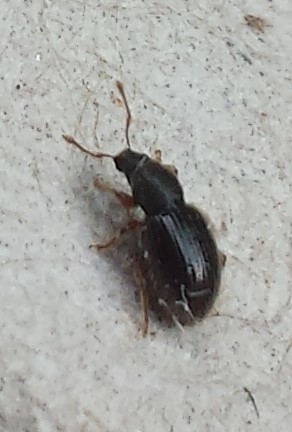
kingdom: Animalia
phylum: Arthropoda
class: Insecta
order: Coleoptera
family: Curculionidae
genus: Exomias
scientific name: Exomias pellucidus
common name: Hairy spider weevil
